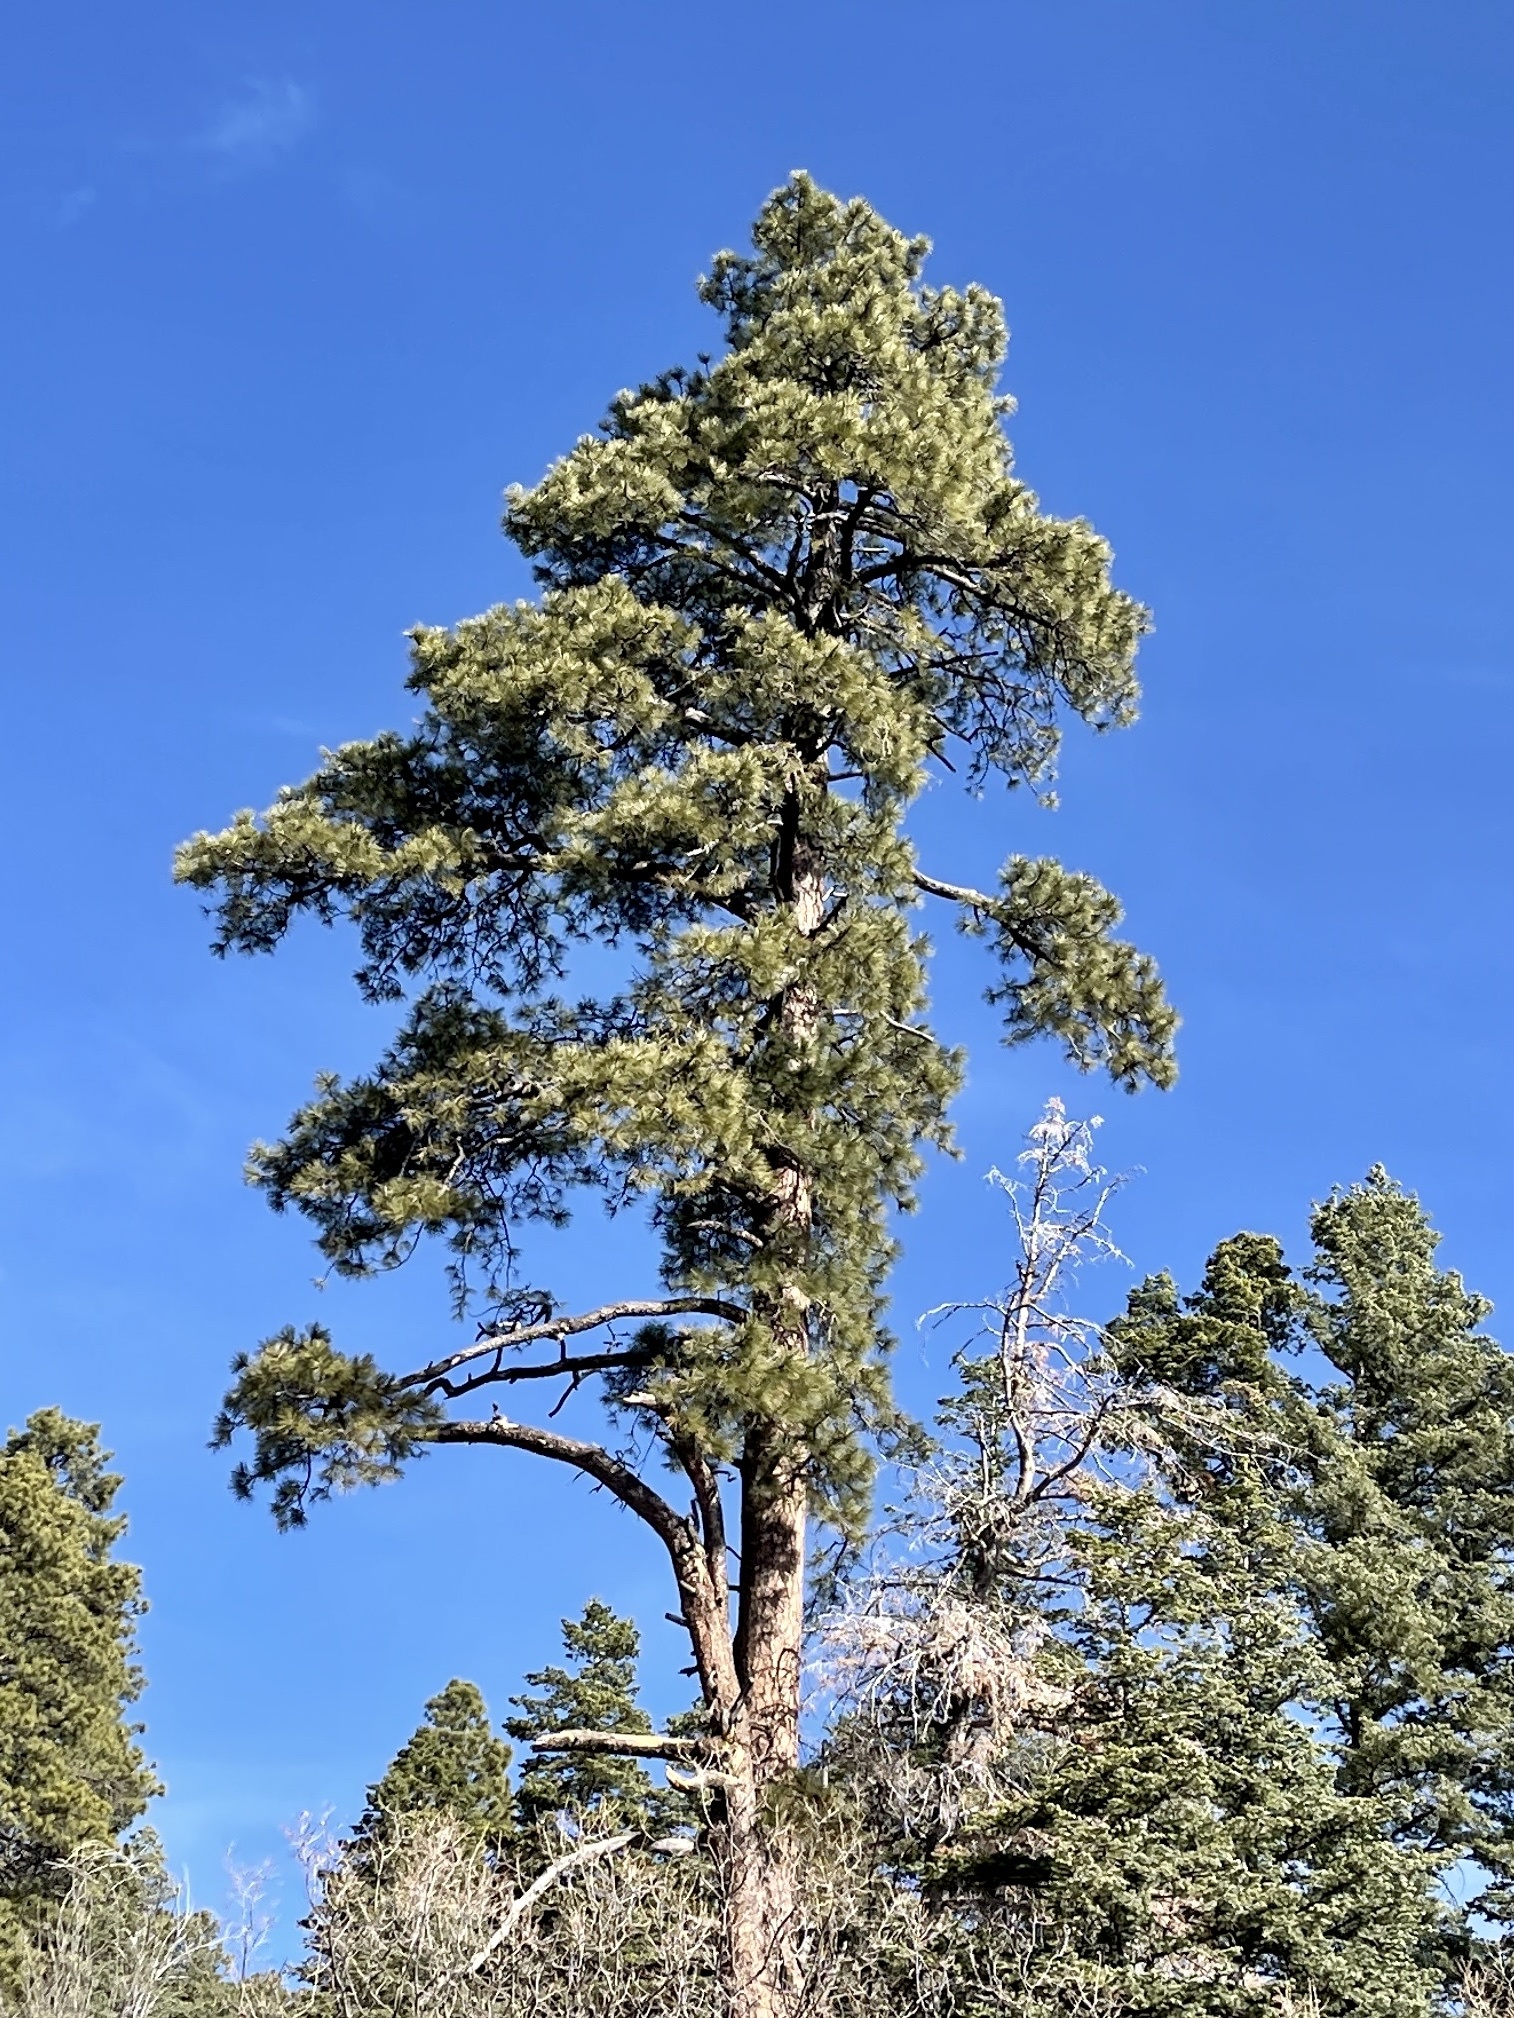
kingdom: Plantae
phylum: Tracheophyta
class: Pinopsida
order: Pinales
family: Pinaceae
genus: Pinus
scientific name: Pinus ponderosa
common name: Western yellow-pine
